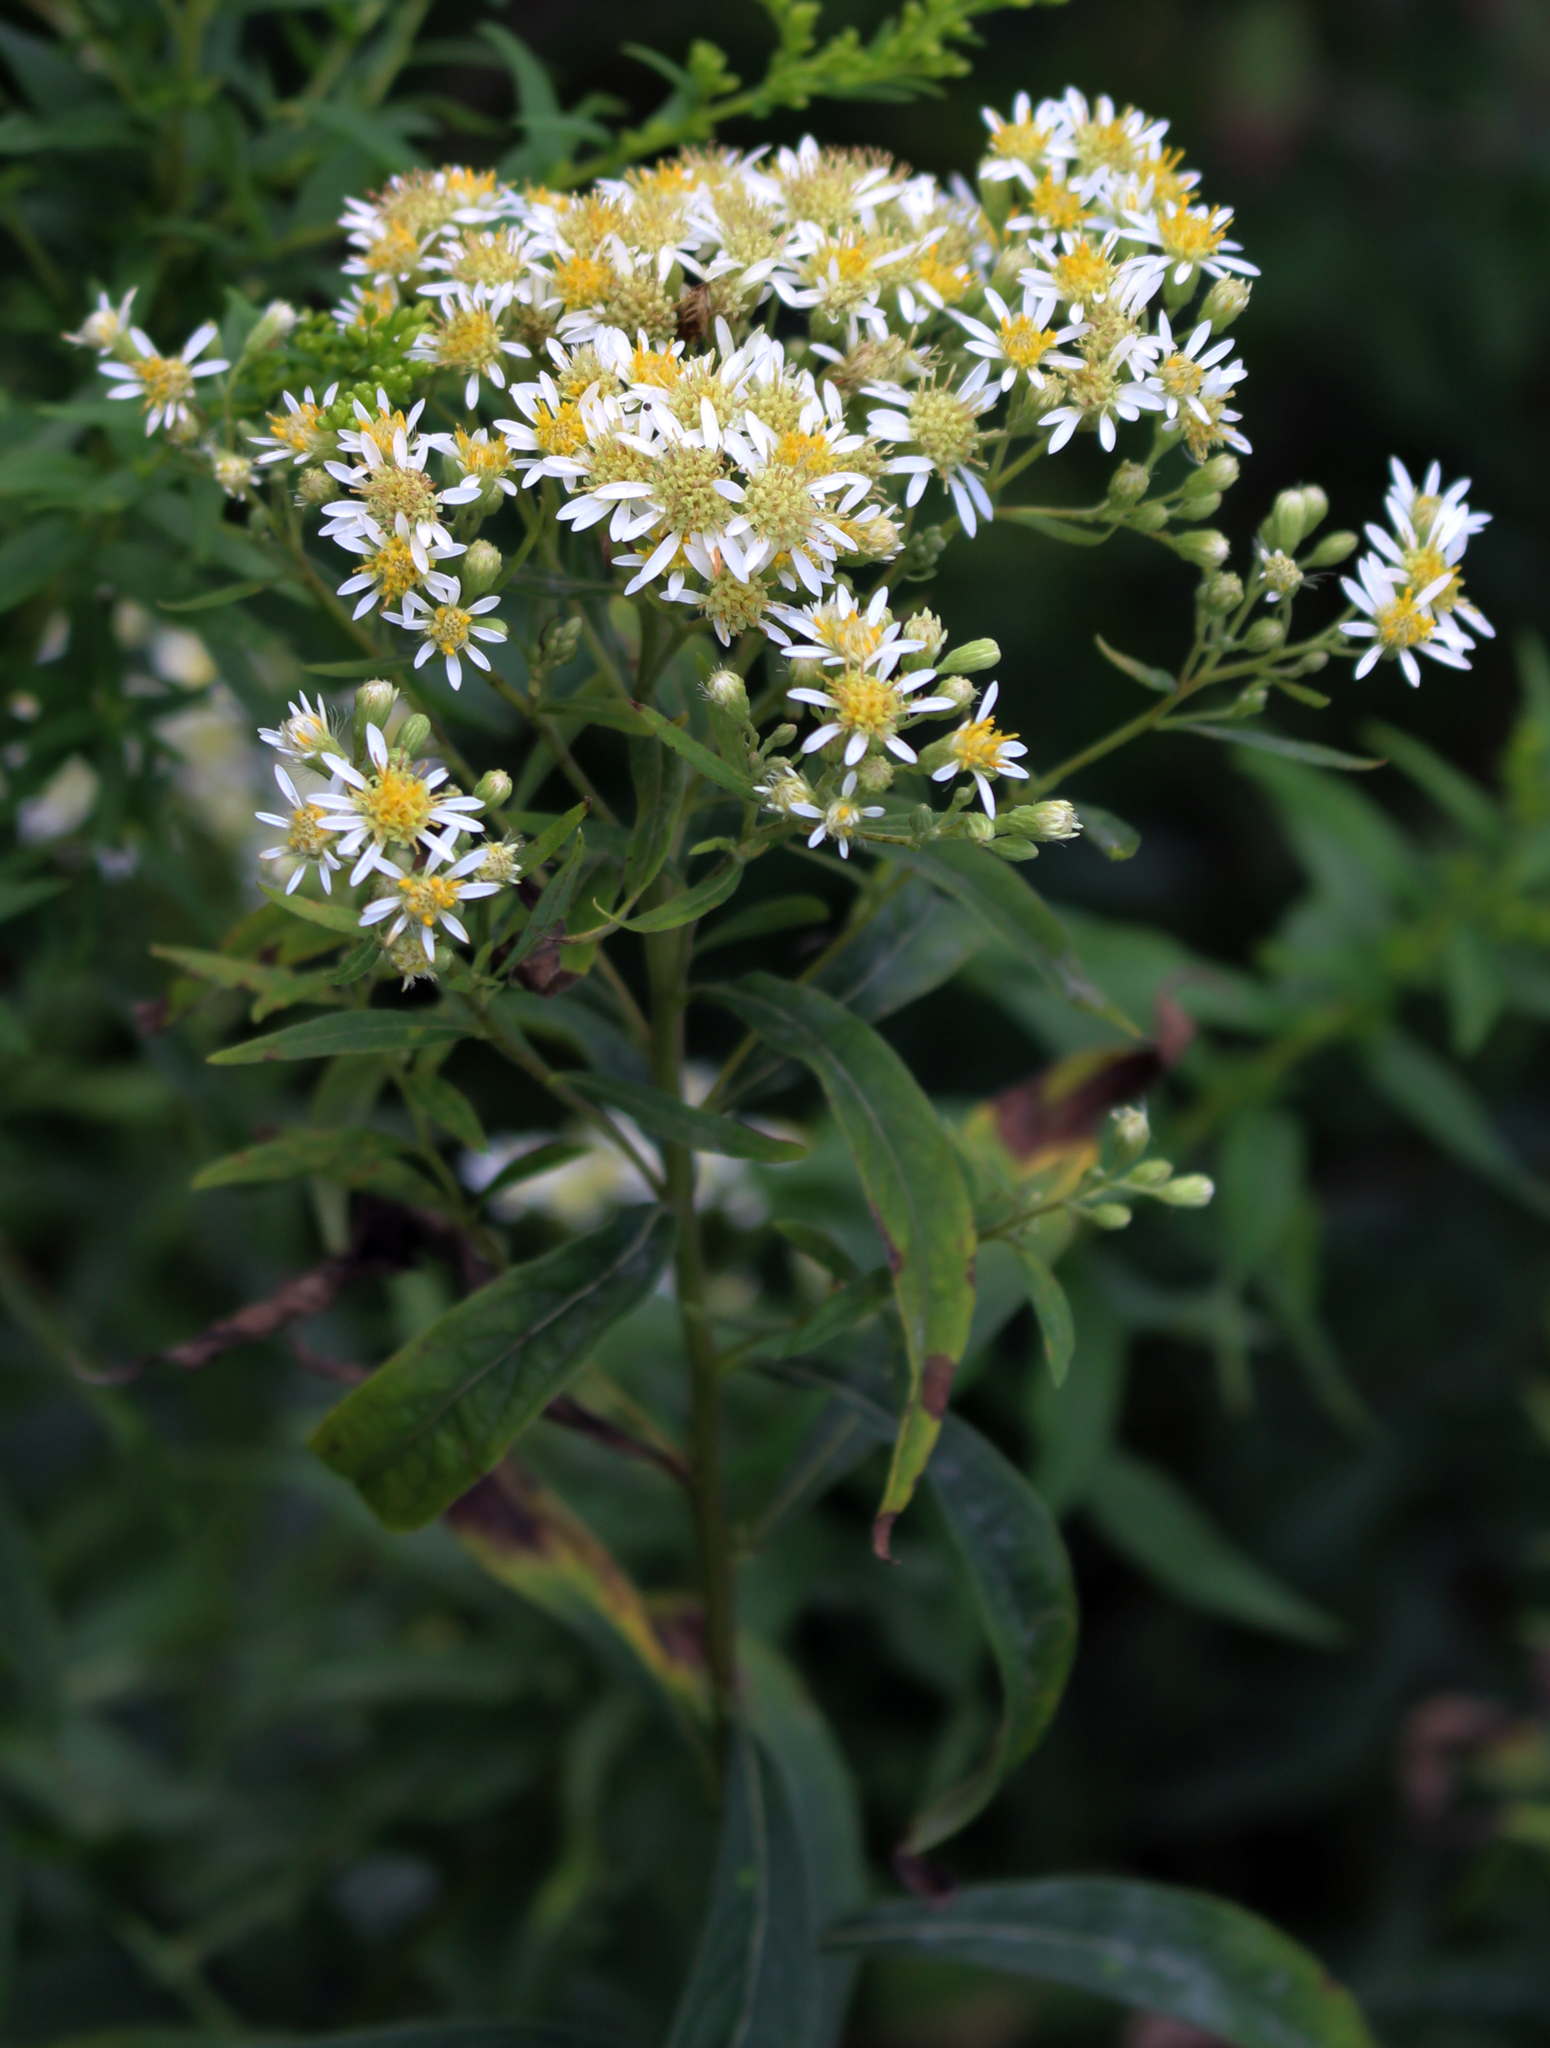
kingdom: Plantae
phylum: Tracheophyta
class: Magnoliopsida
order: Asterales
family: Asteraceae
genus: Doellingeria
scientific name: Doellingeria umbellata
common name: Flat-top white aster
